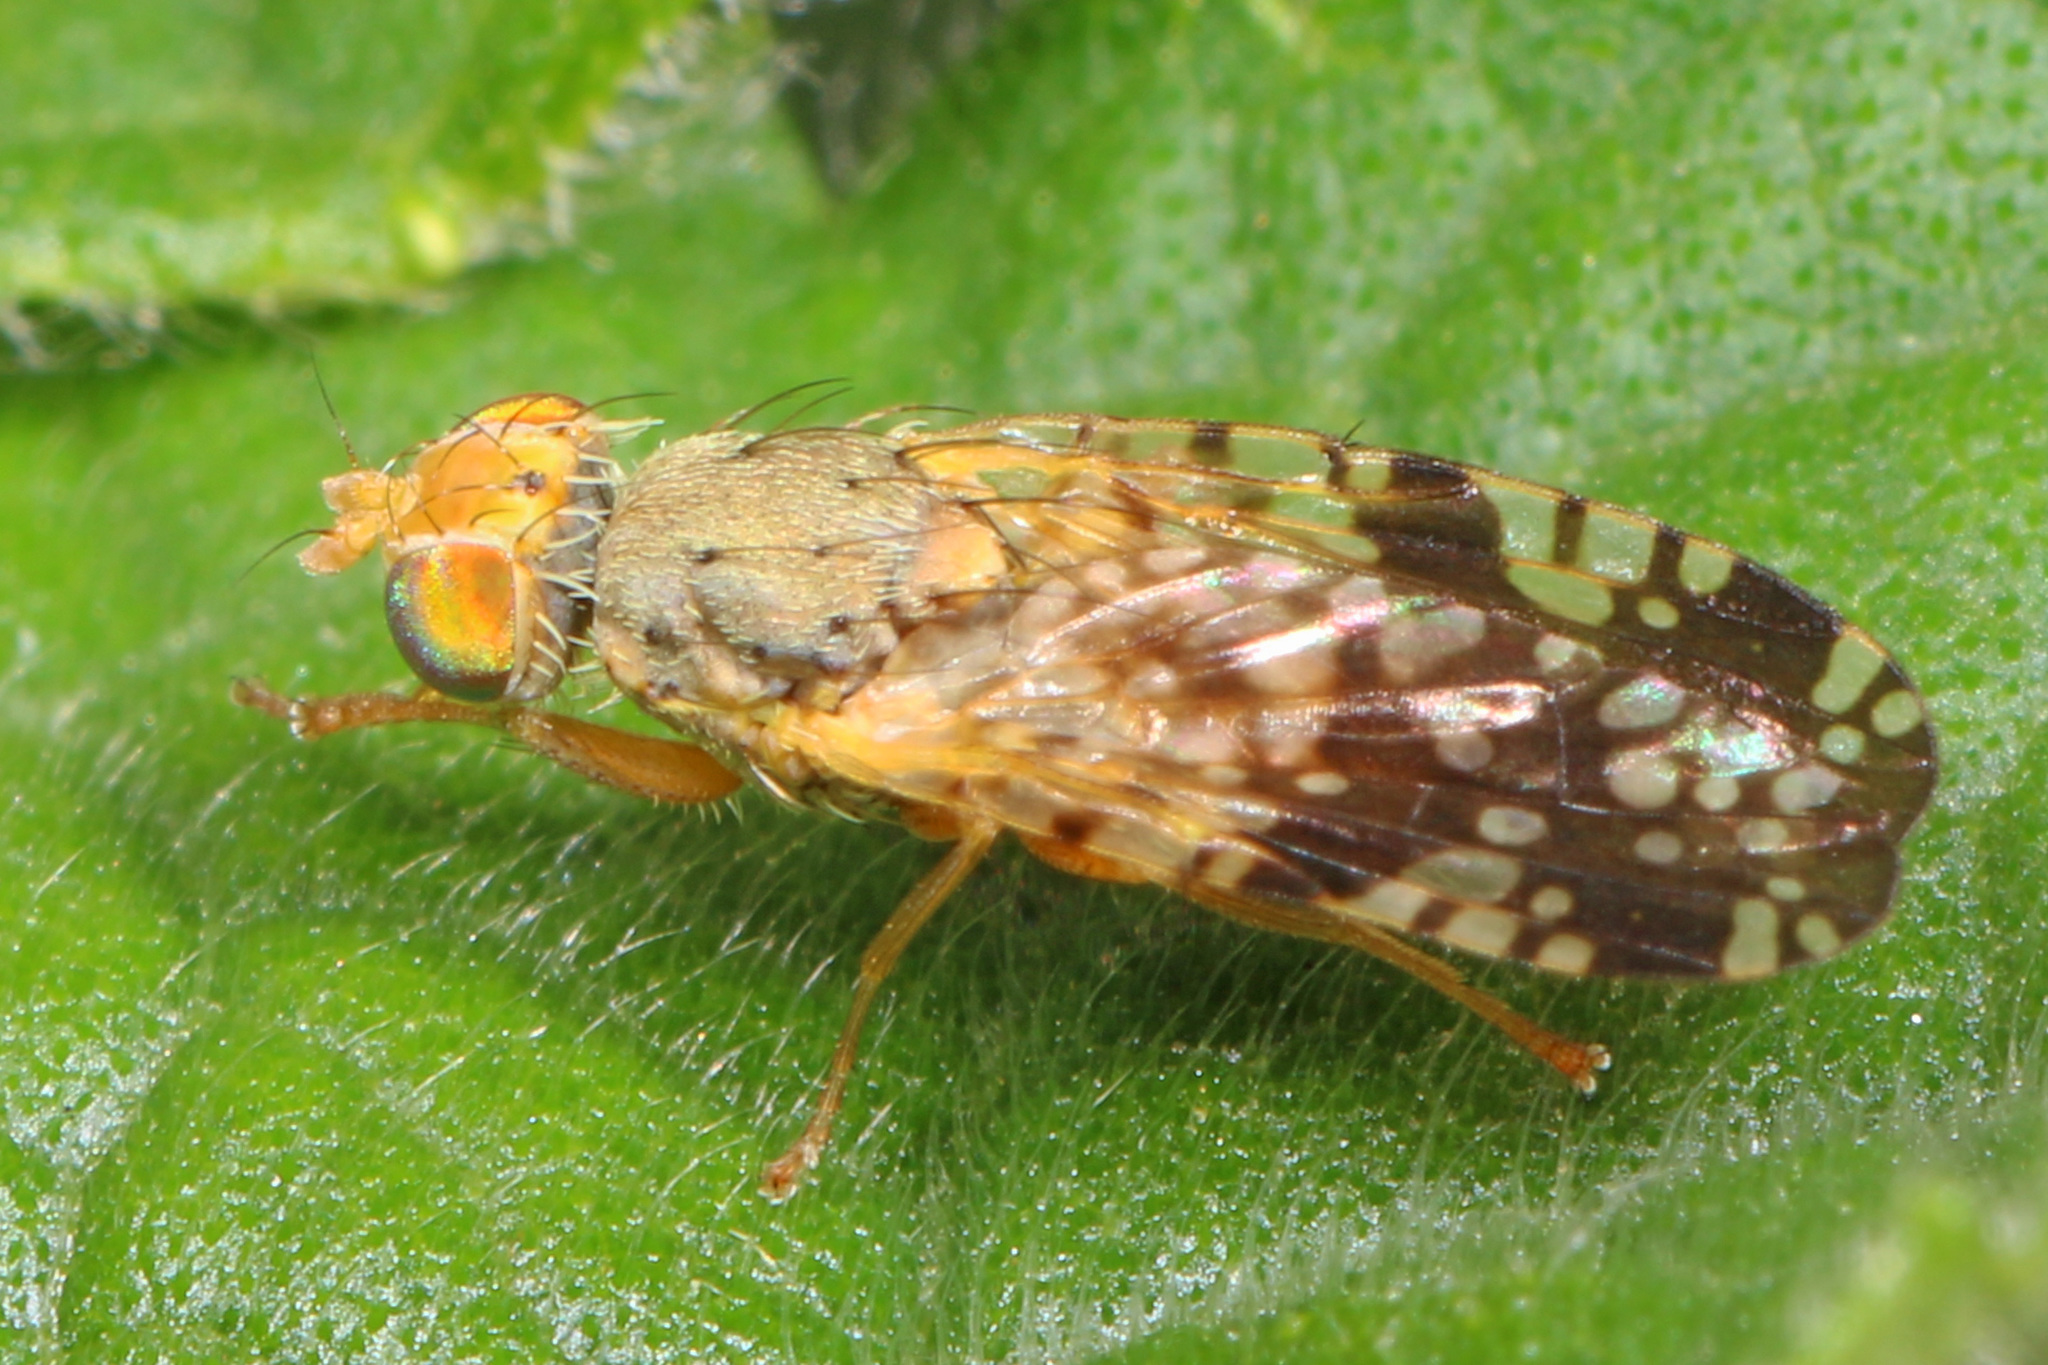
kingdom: Animalia
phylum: Arthropoda
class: Insecta
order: Diptera
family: Tephritidae
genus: Neotephritis
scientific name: Neotephritis finalis
